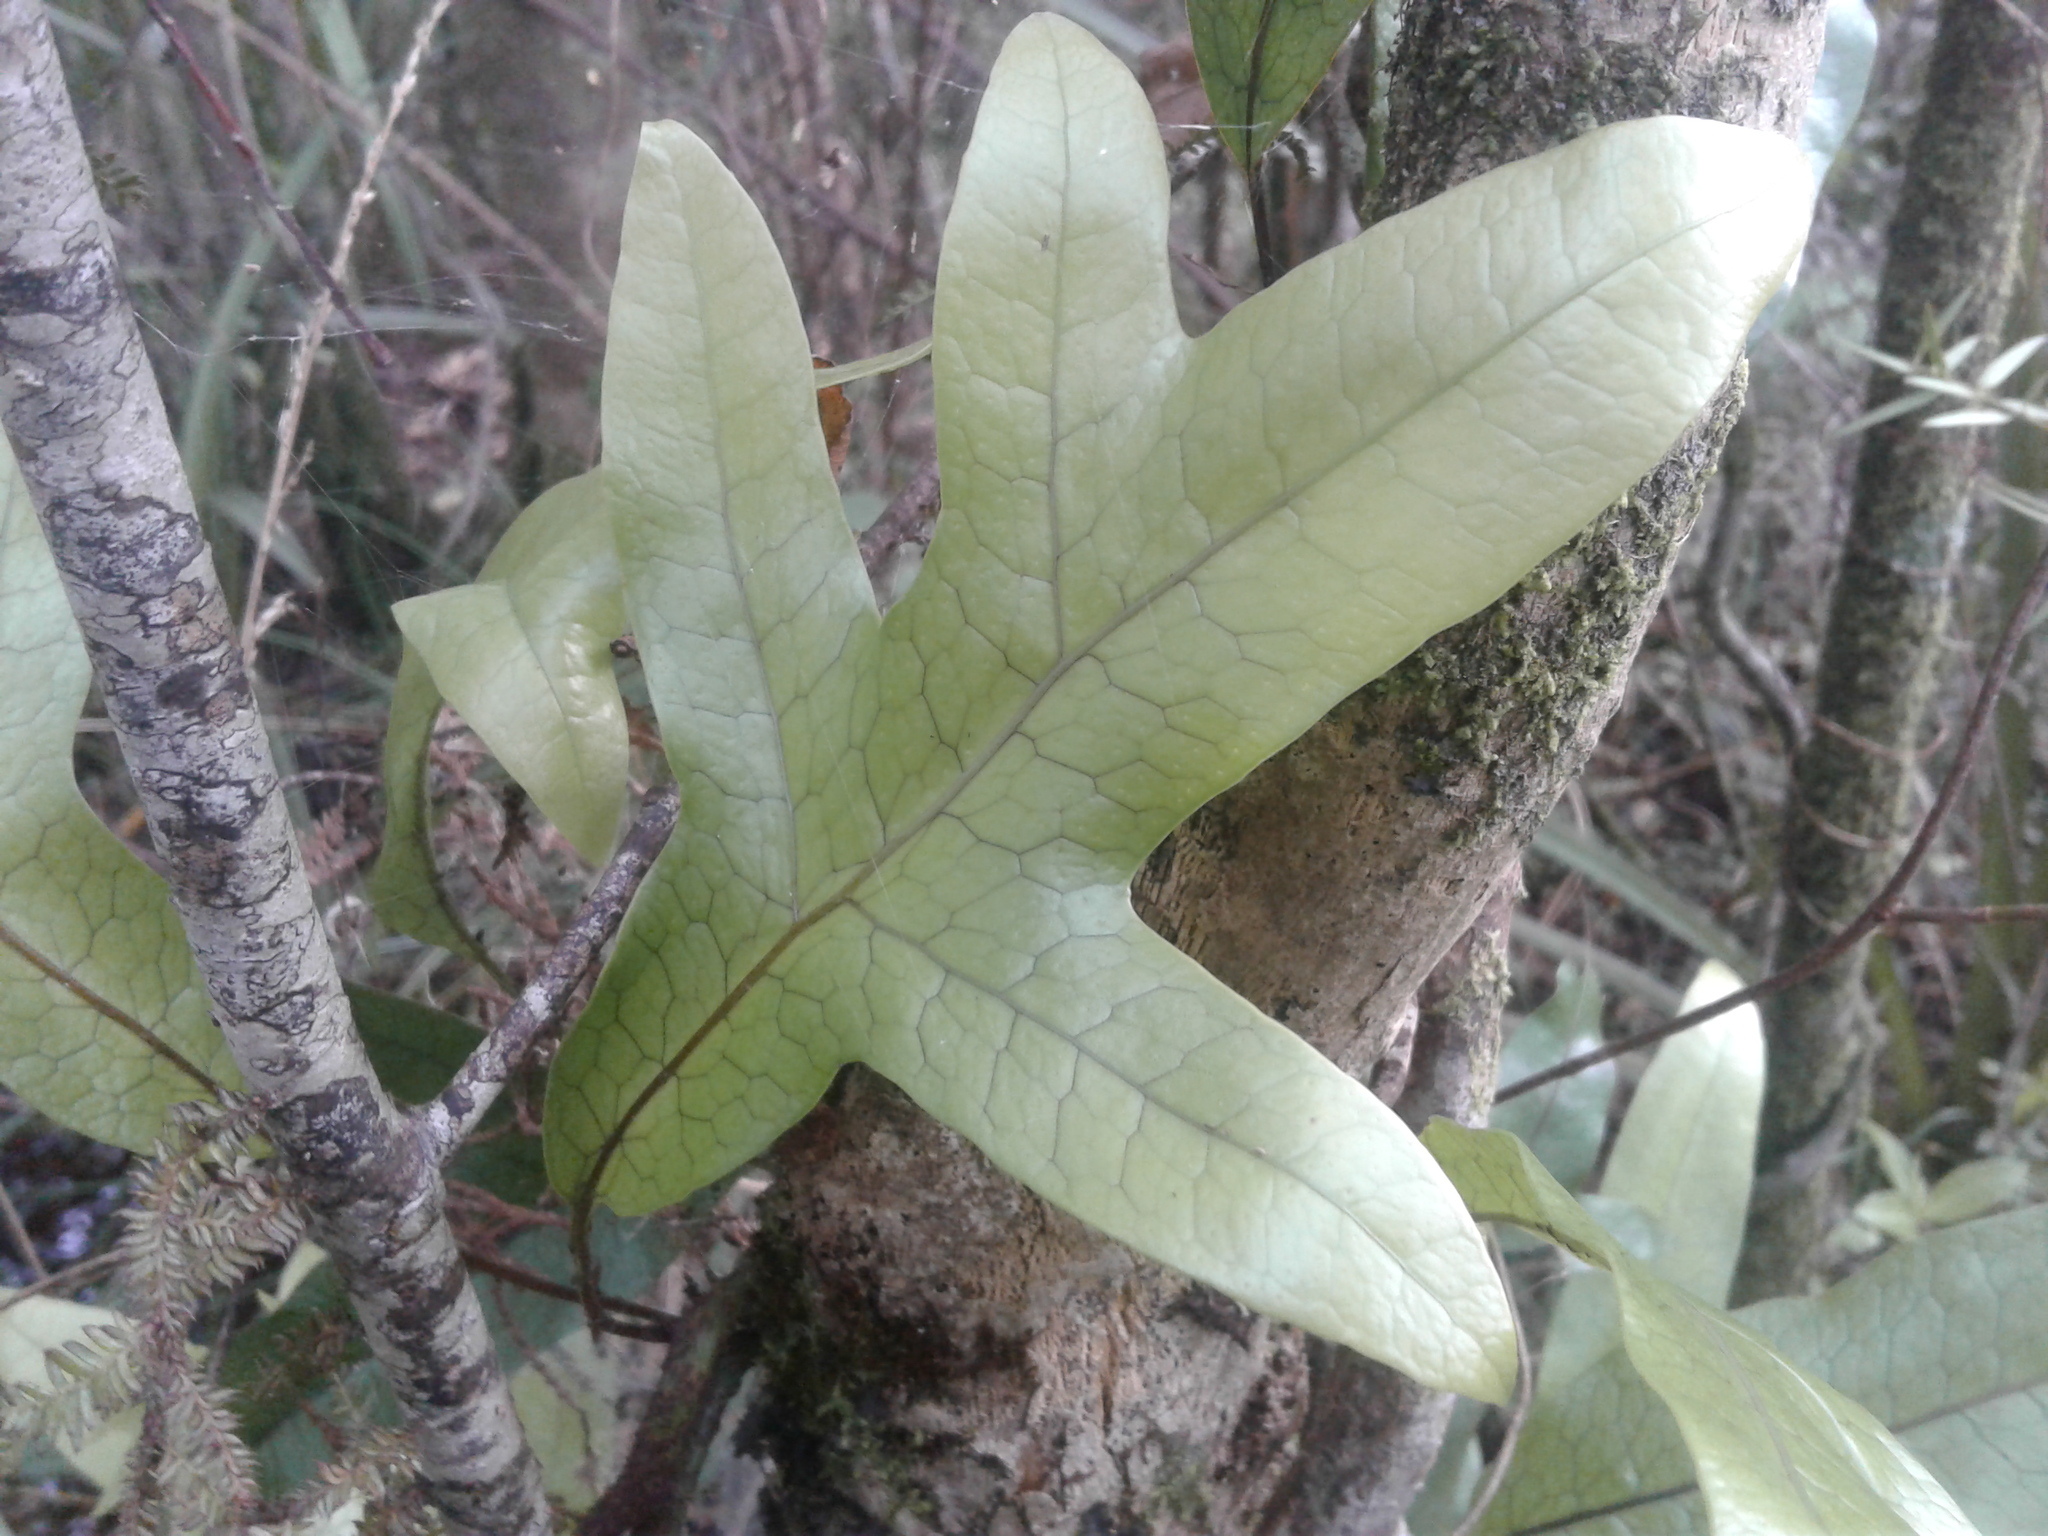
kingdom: Plantae
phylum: Tracheophyta
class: Polypodiopsida
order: Polypodiales
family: Polypodiaceae
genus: Lecanopteris
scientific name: Lecanopteris pustulata
